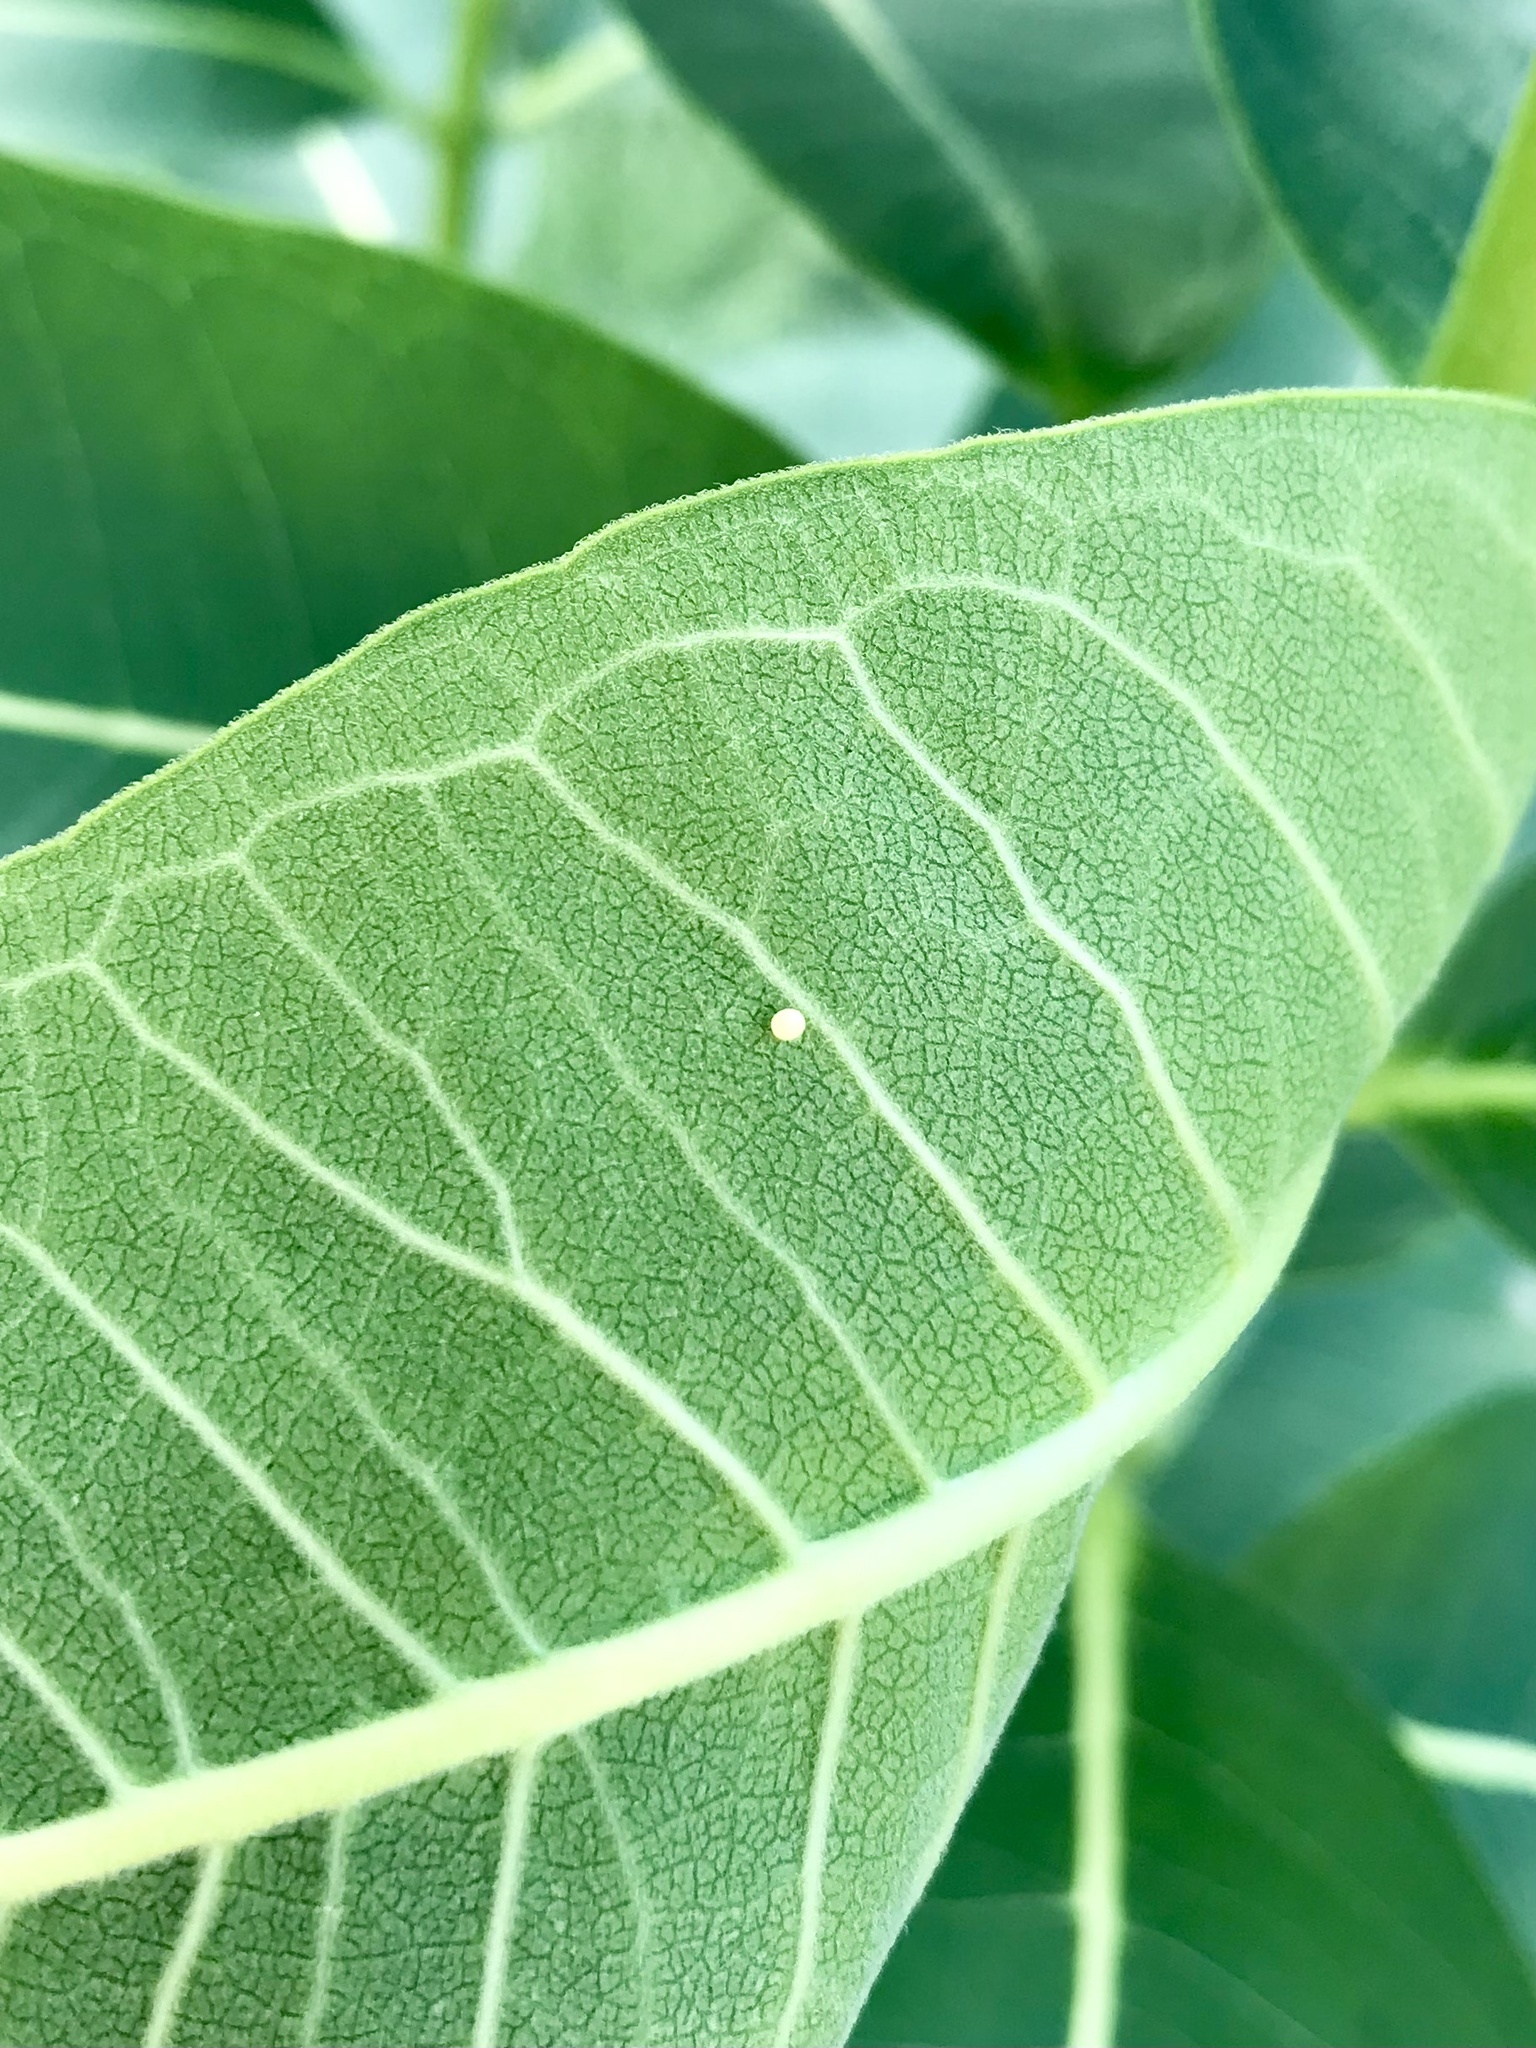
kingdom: Animalia
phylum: Arthropoda
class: Insecta
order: Lepidoptera
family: Nymphalidae
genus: Danaus
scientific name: Danaus plexippus
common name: Monarch
